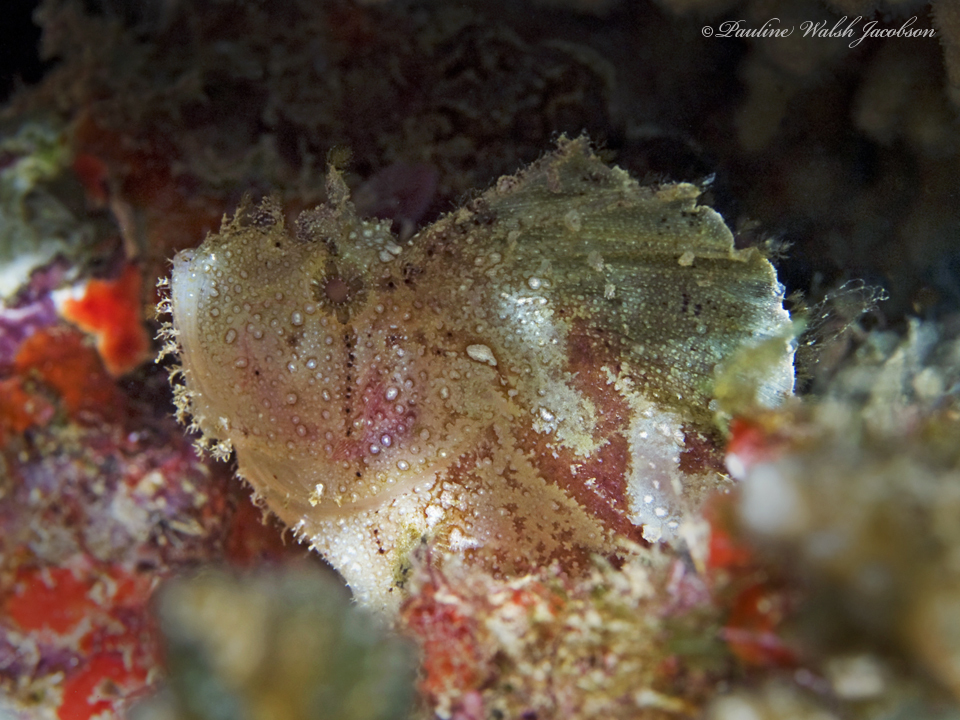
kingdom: Animalia
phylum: Chordata
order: Scorpaeniformes
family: Scorpaenidae
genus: Taenianotus
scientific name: Taenianotus triacanthus
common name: Leaf scorpionfish
